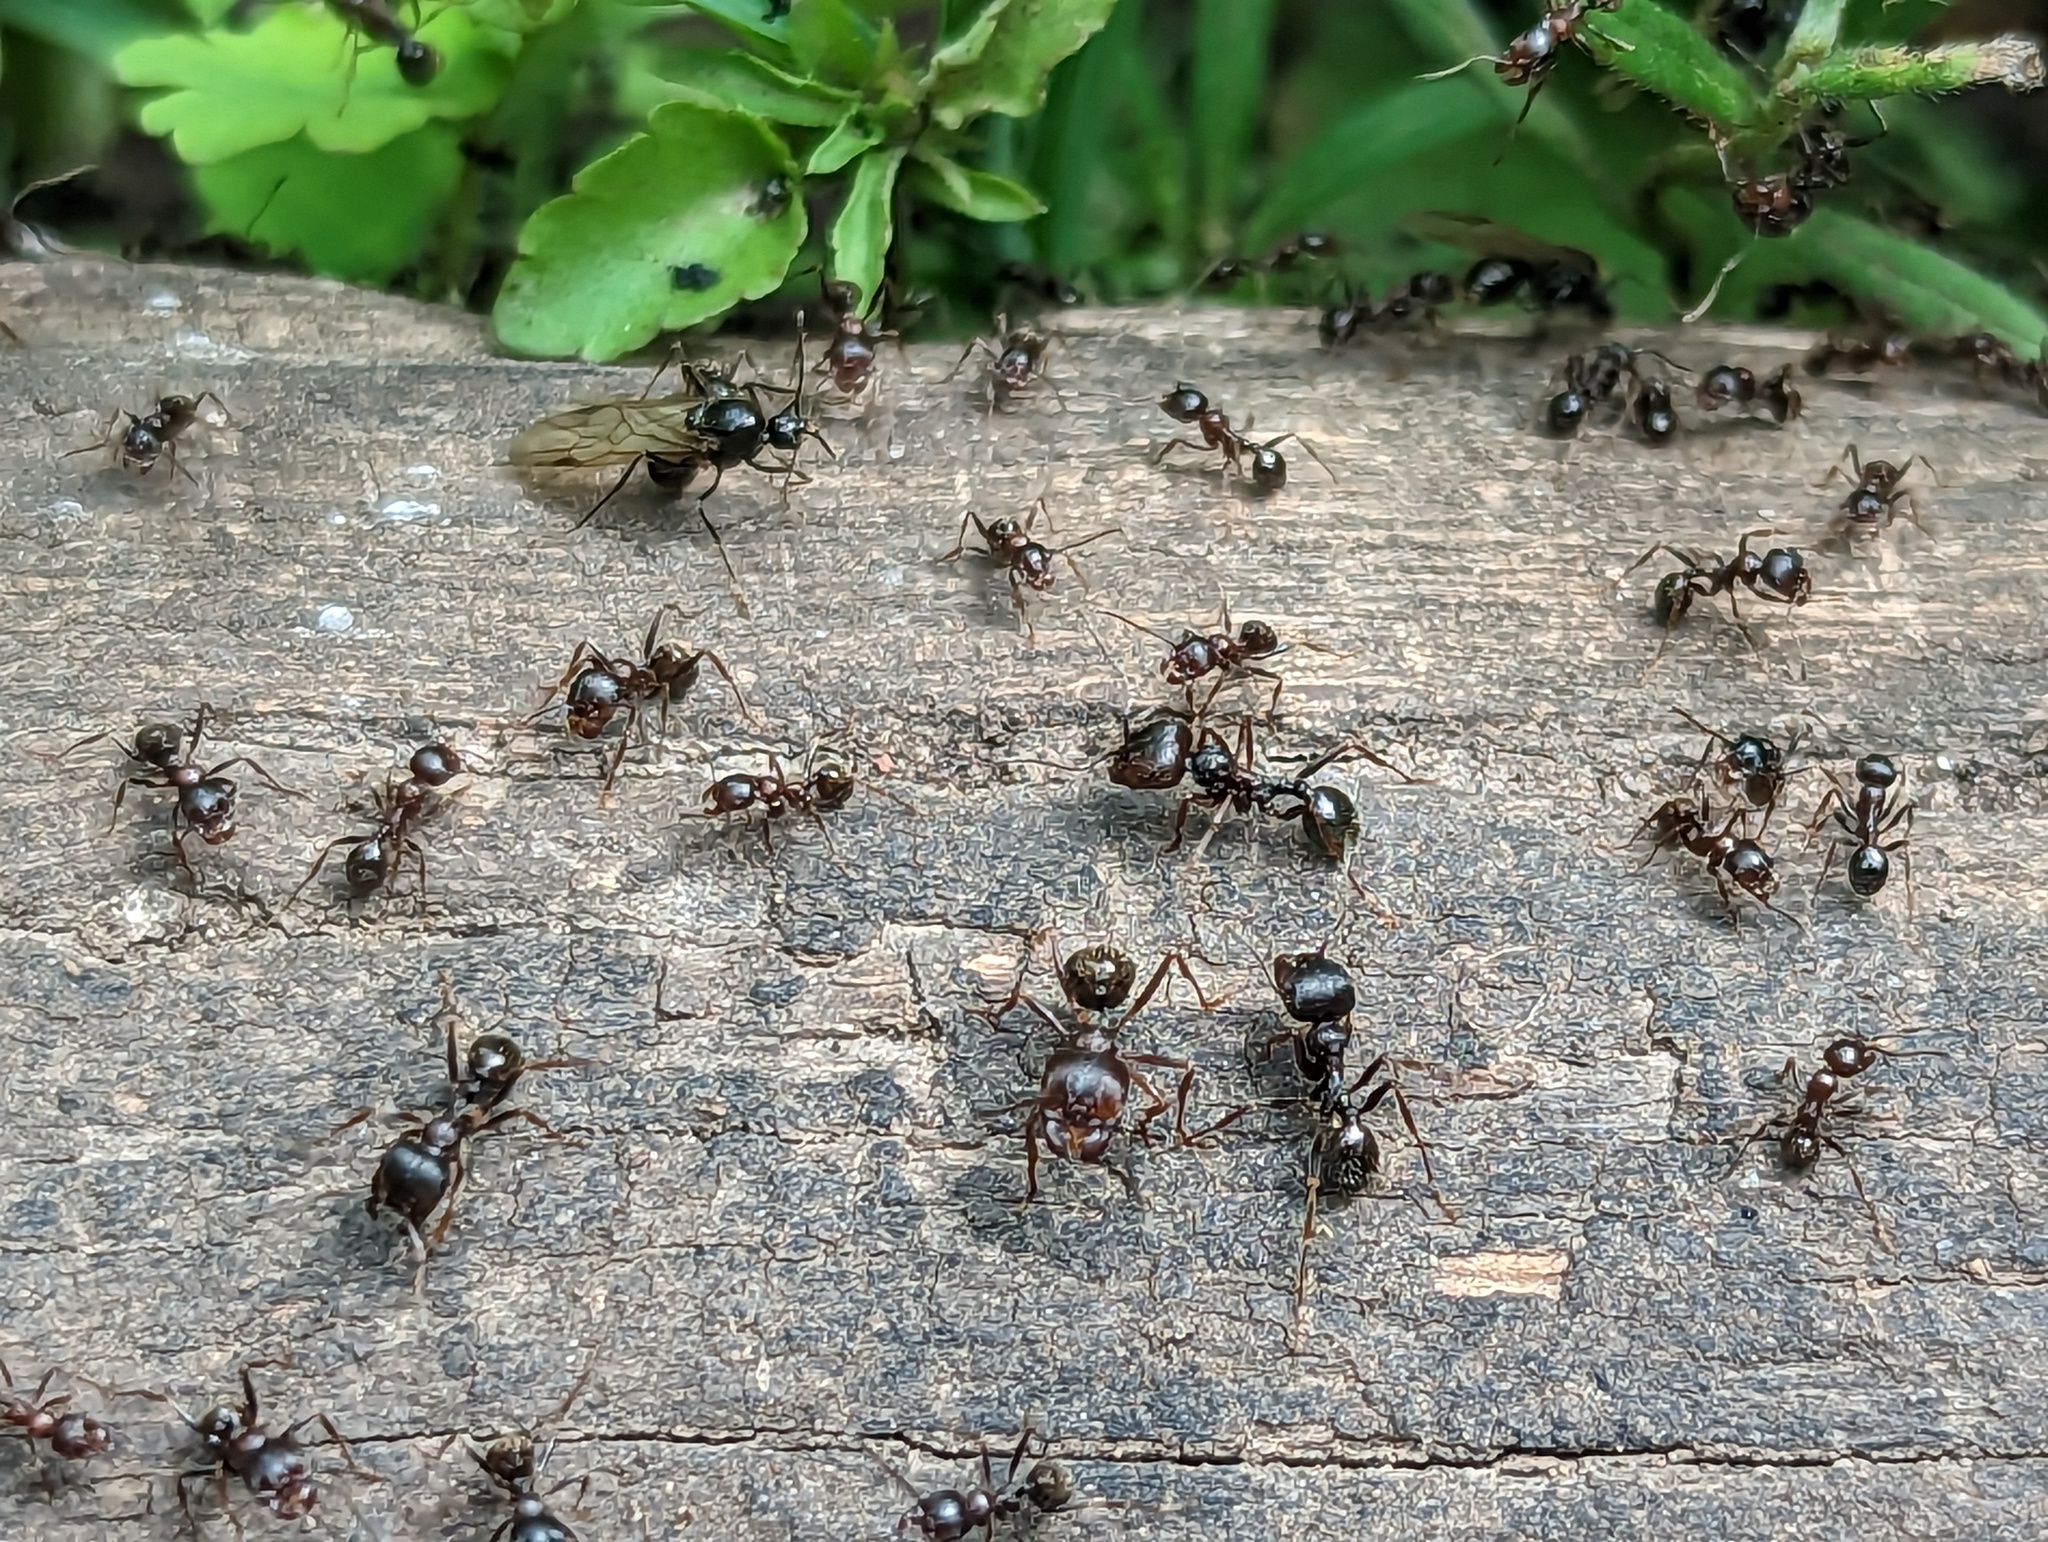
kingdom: Animalia
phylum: Arthropoda
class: Insecta
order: Hymenoptera
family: Formicidae
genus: Messor
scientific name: Messor structor
